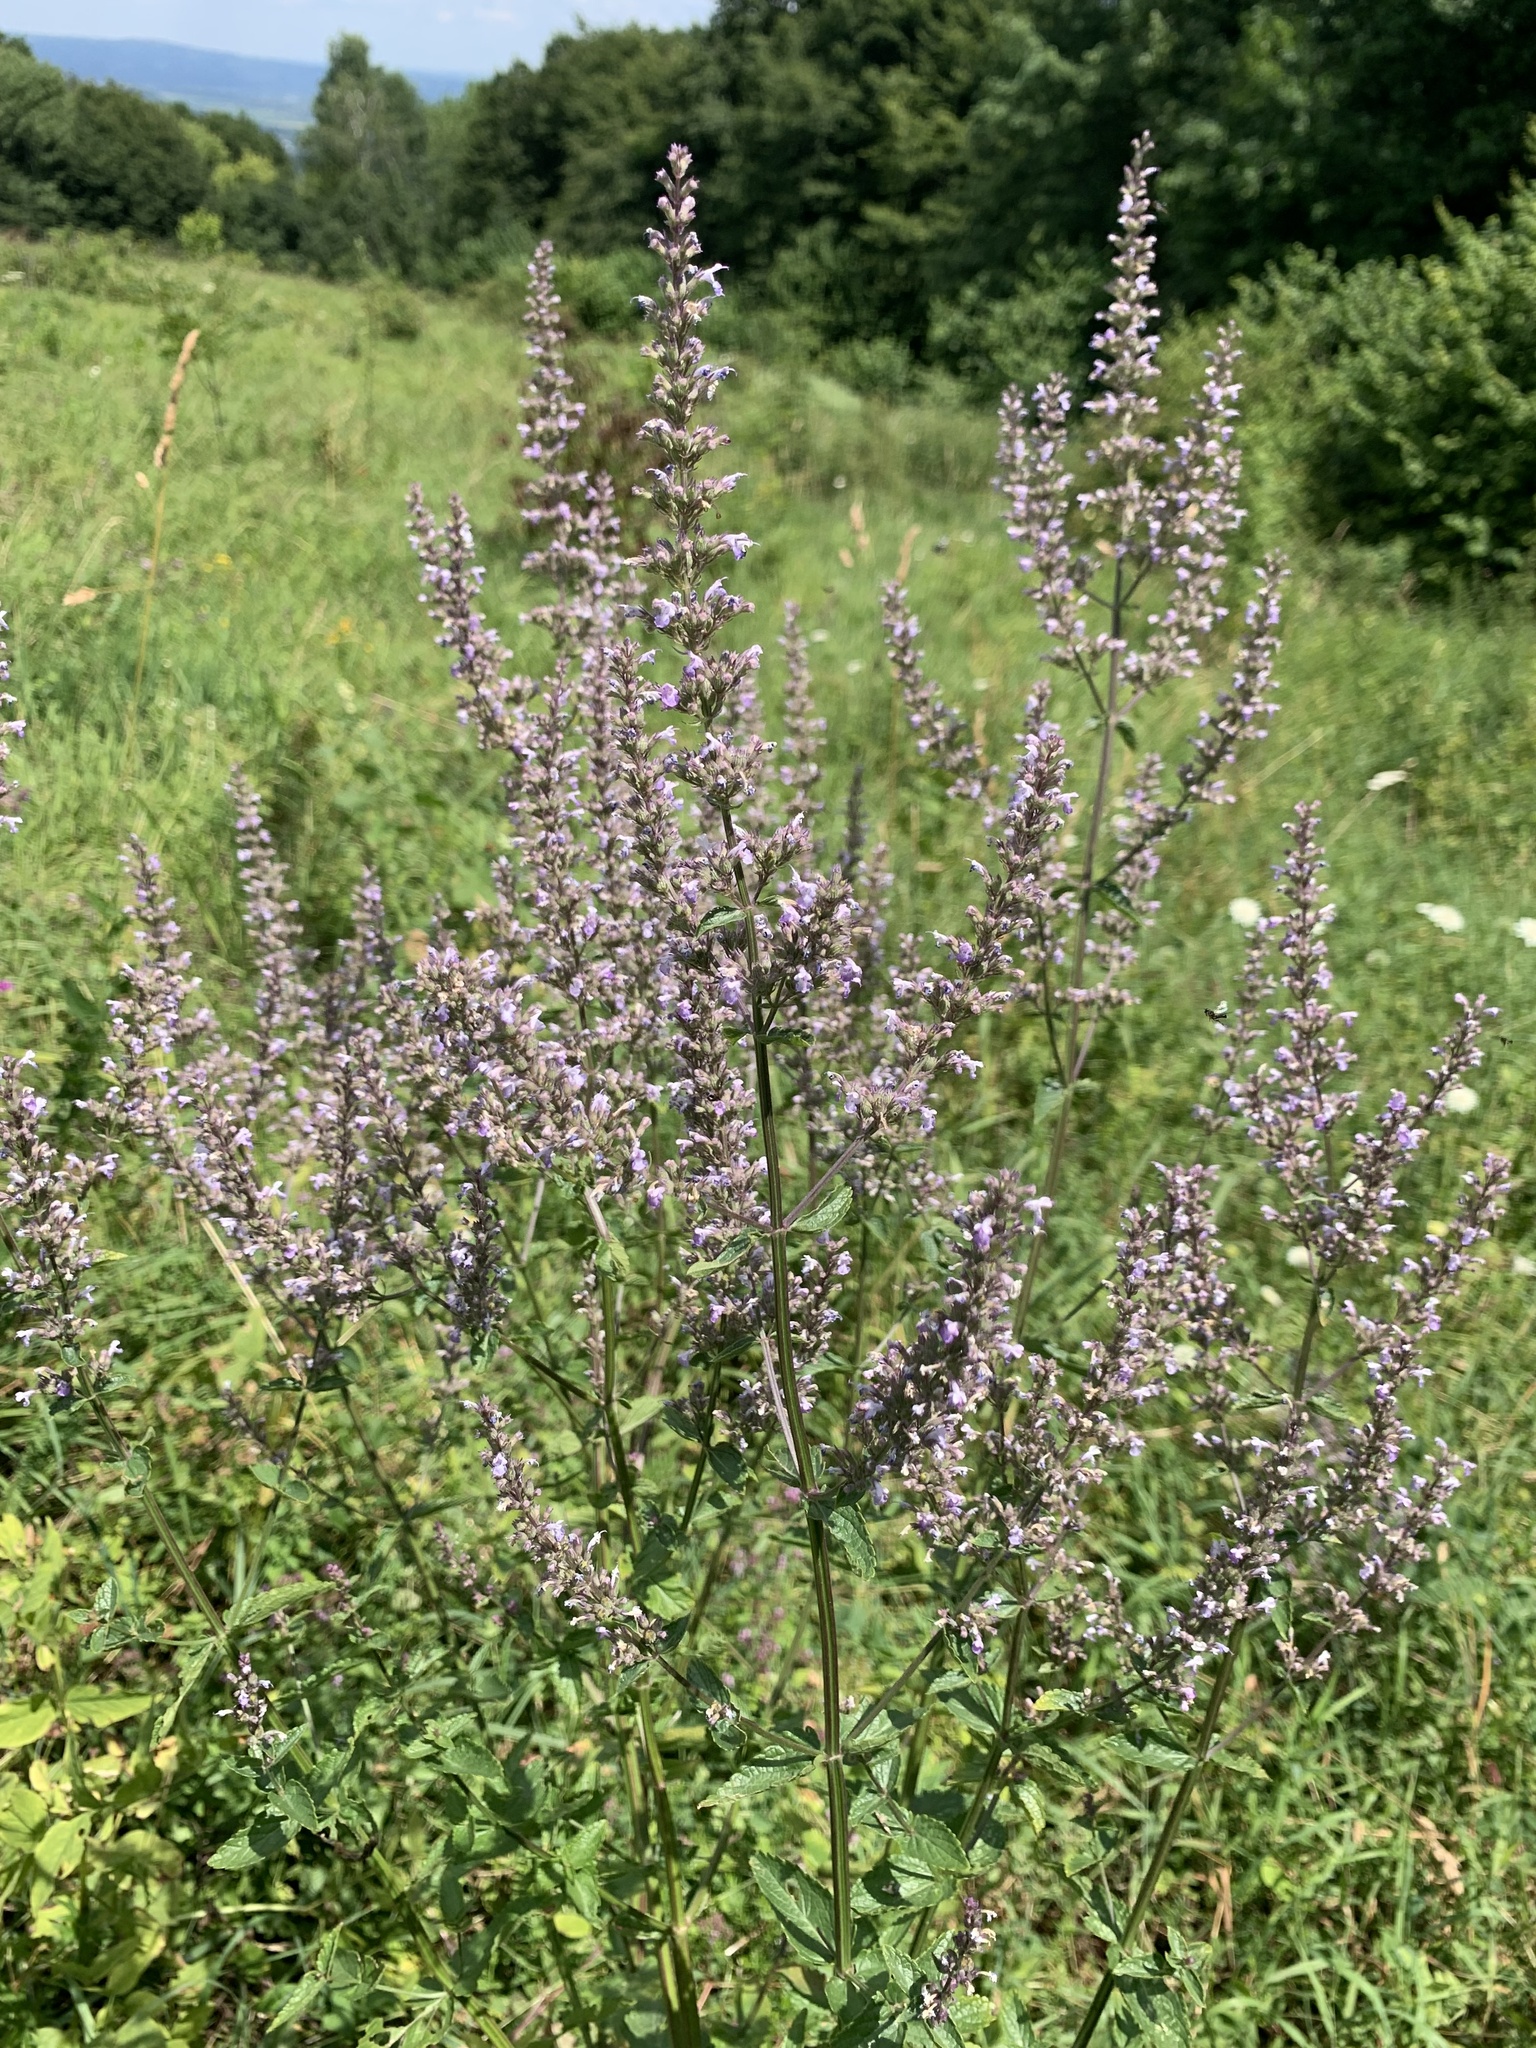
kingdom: Plantae
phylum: Tracheophyta
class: Magnoliopsida
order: Lamiales
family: Lamiaceae
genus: Nepeta
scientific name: Nepeta nuda
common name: Hairless catmint
